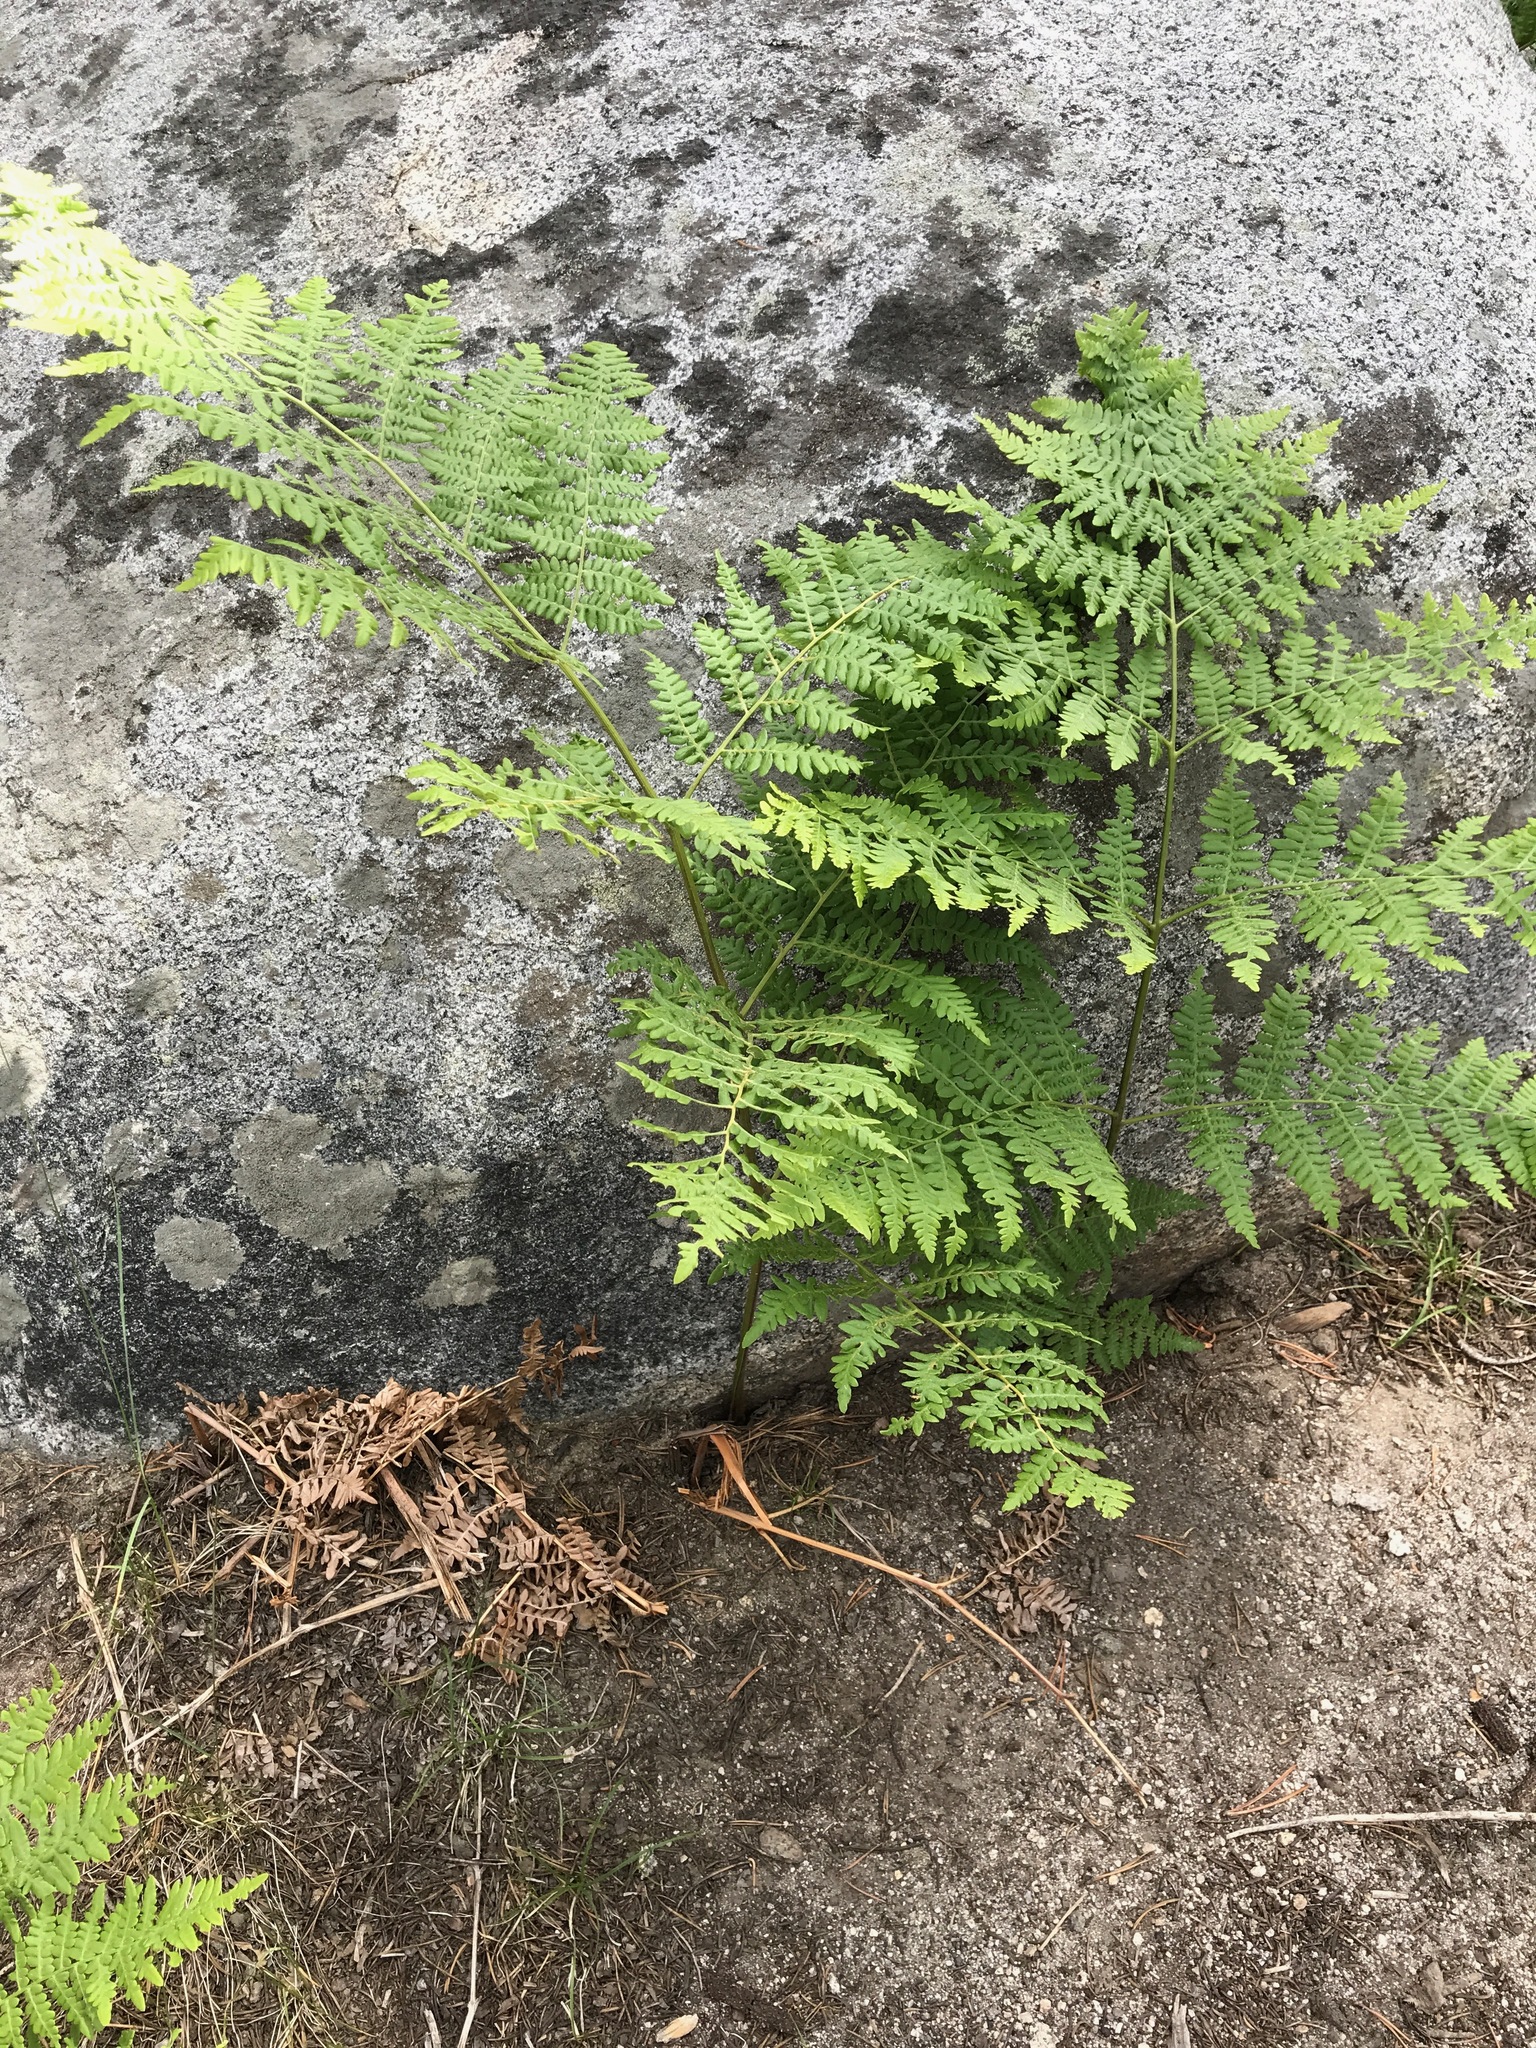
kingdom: Plantae
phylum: Tracheophyta
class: Polypodiopsida
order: Polypodiales
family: Dennstaedtiaceae
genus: Pteridium
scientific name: Pteridium aquilinum
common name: Bracken
